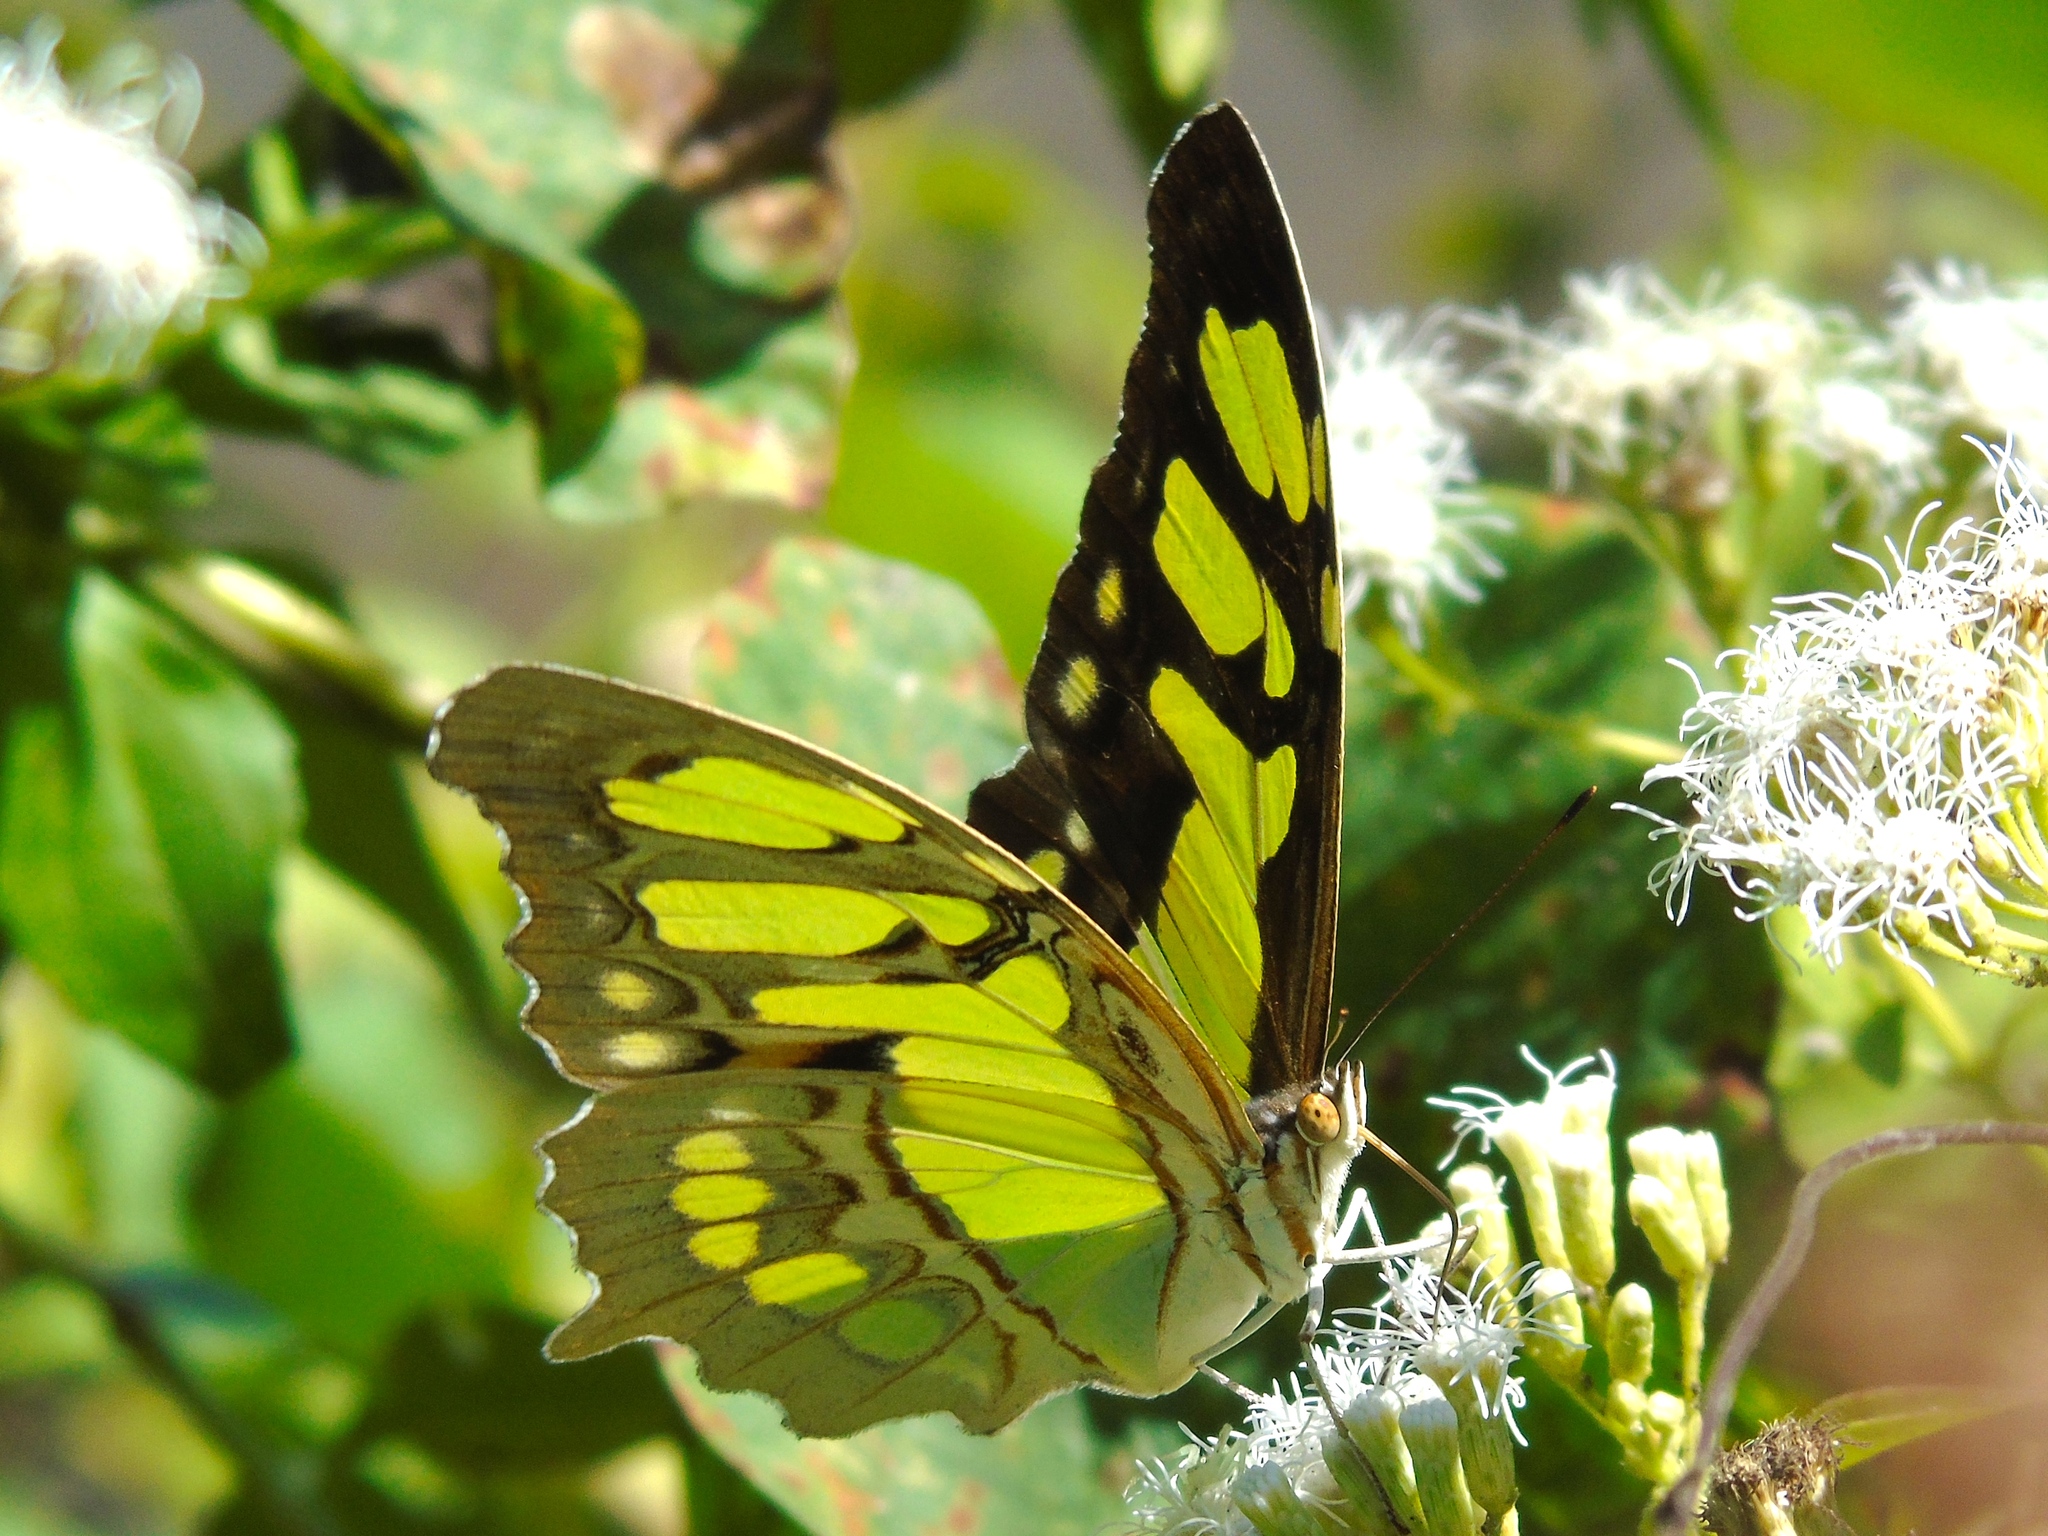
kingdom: Animalia
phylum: Arthropoda
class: Insecta
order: Lepidoptera
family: Nymphalidae
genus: Siproeta
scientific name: Siproeta stelenes
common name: Malachite
